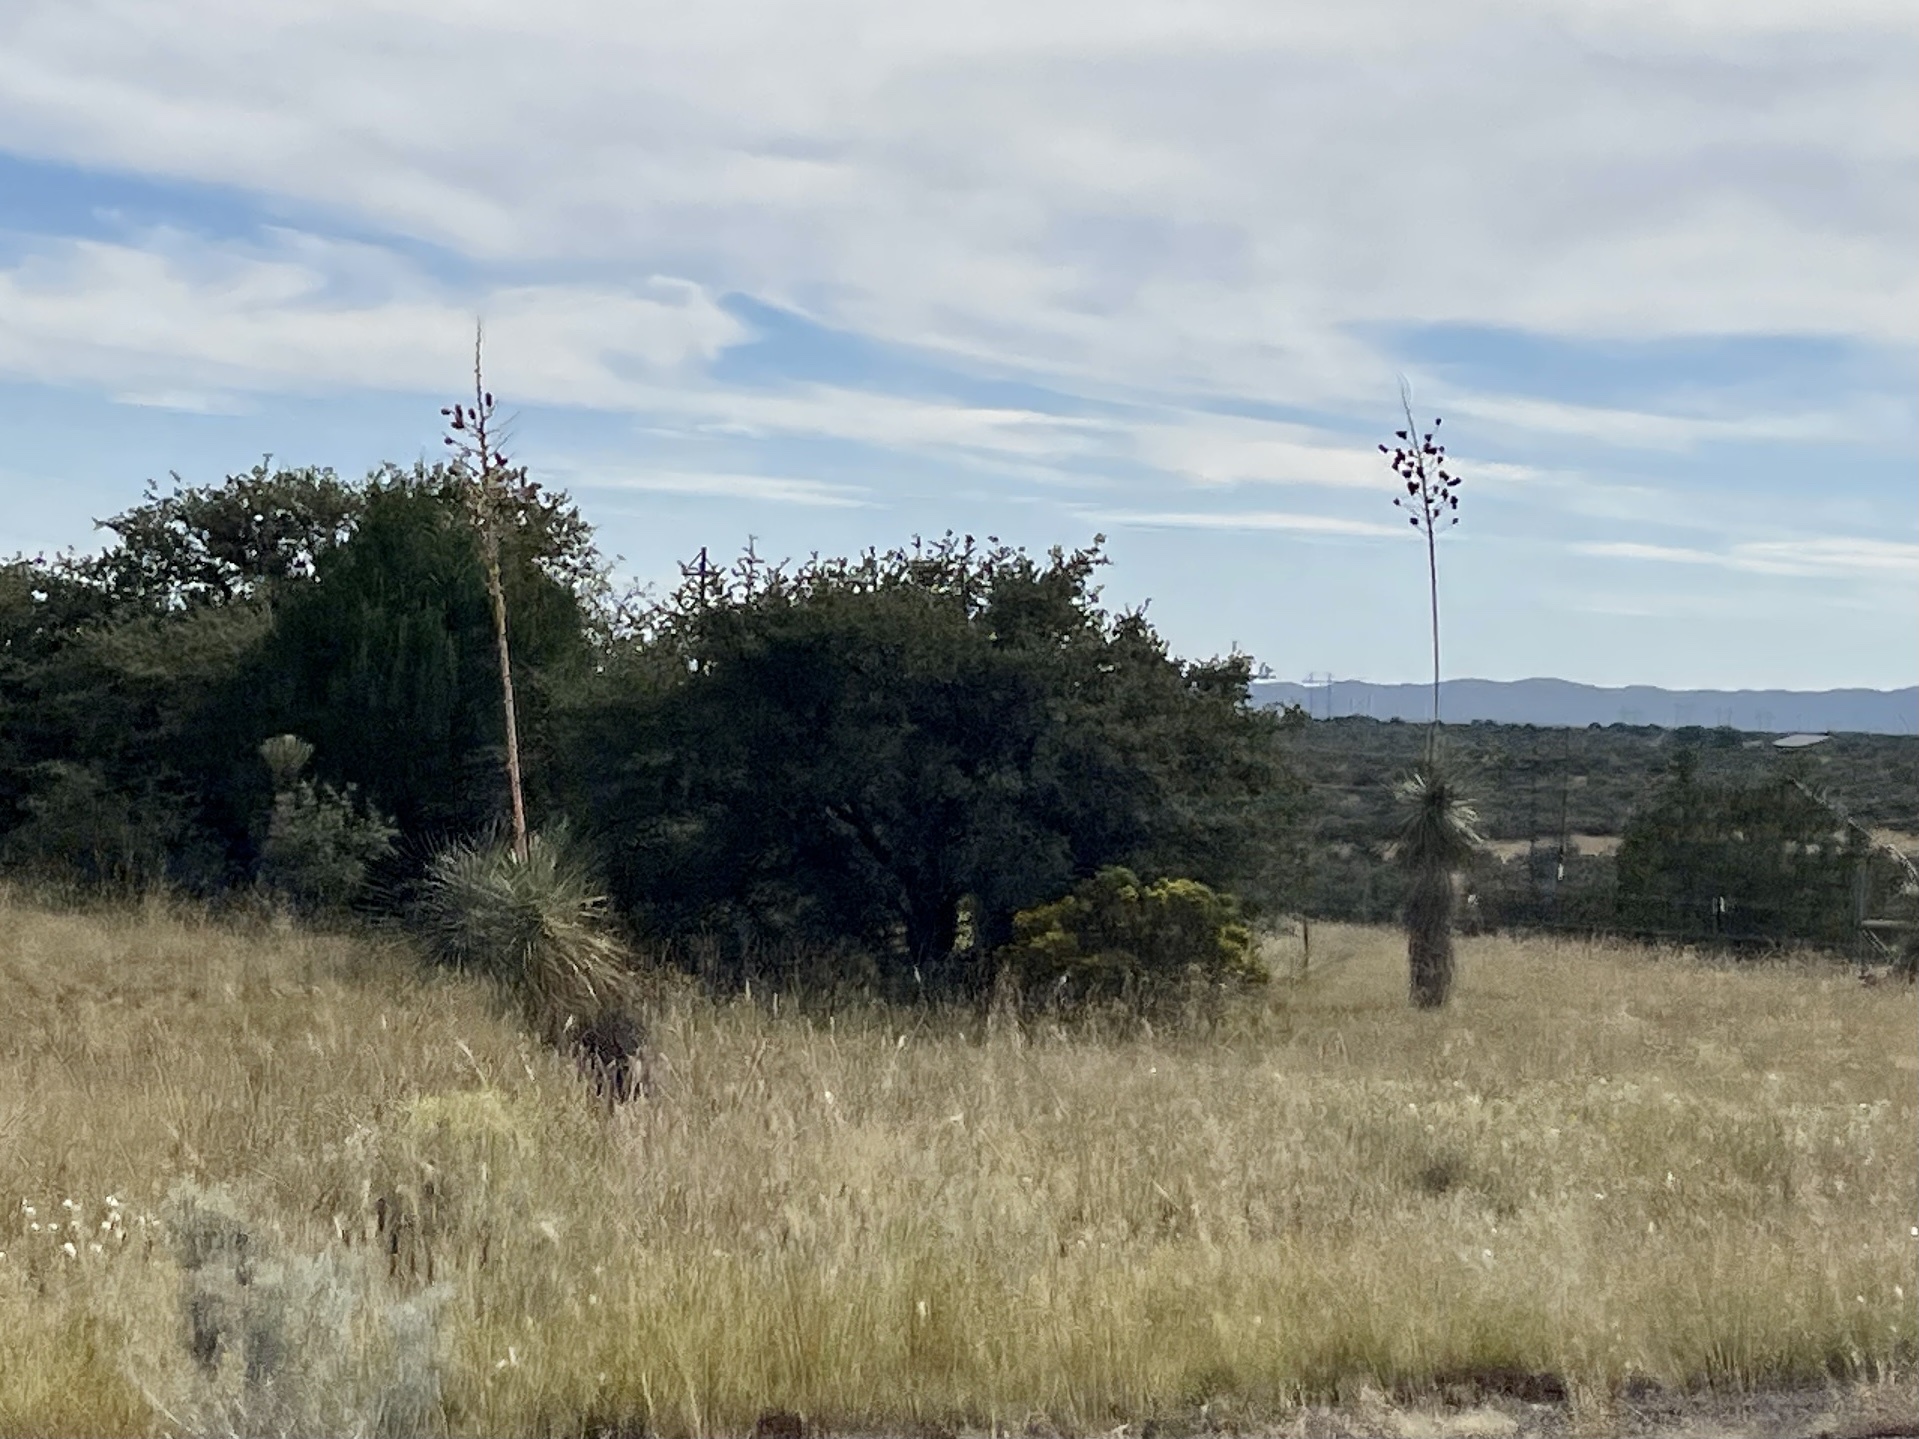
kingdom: Plantae
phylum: Tracheophyta
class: Liliopsida
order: Asparagales
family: Asparagaceae
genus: Yucca
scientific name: Yucca elata
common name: Palmella
